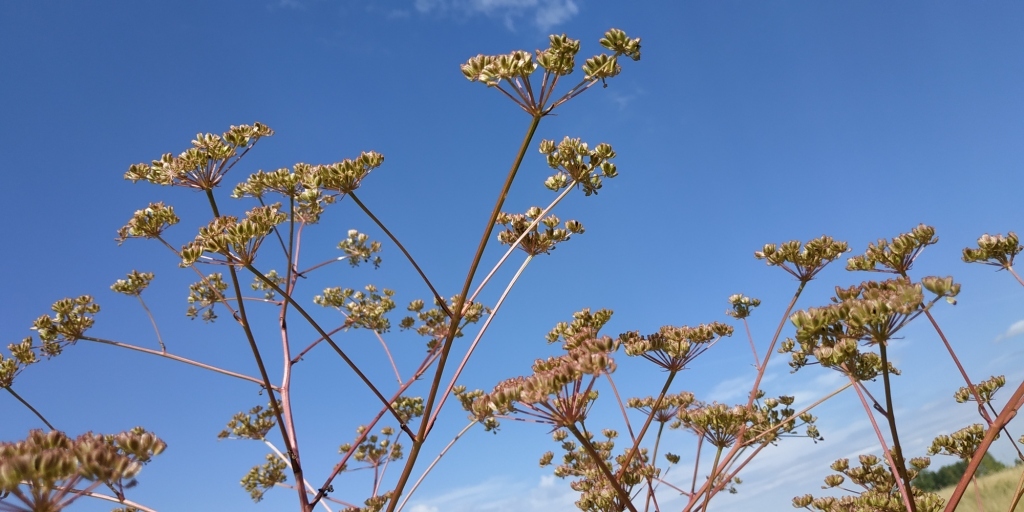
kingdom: Plantae
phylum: Tracheophyta
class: Magnoliopsida
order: Apiales
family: Apiaceae
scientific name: Apiaceae
